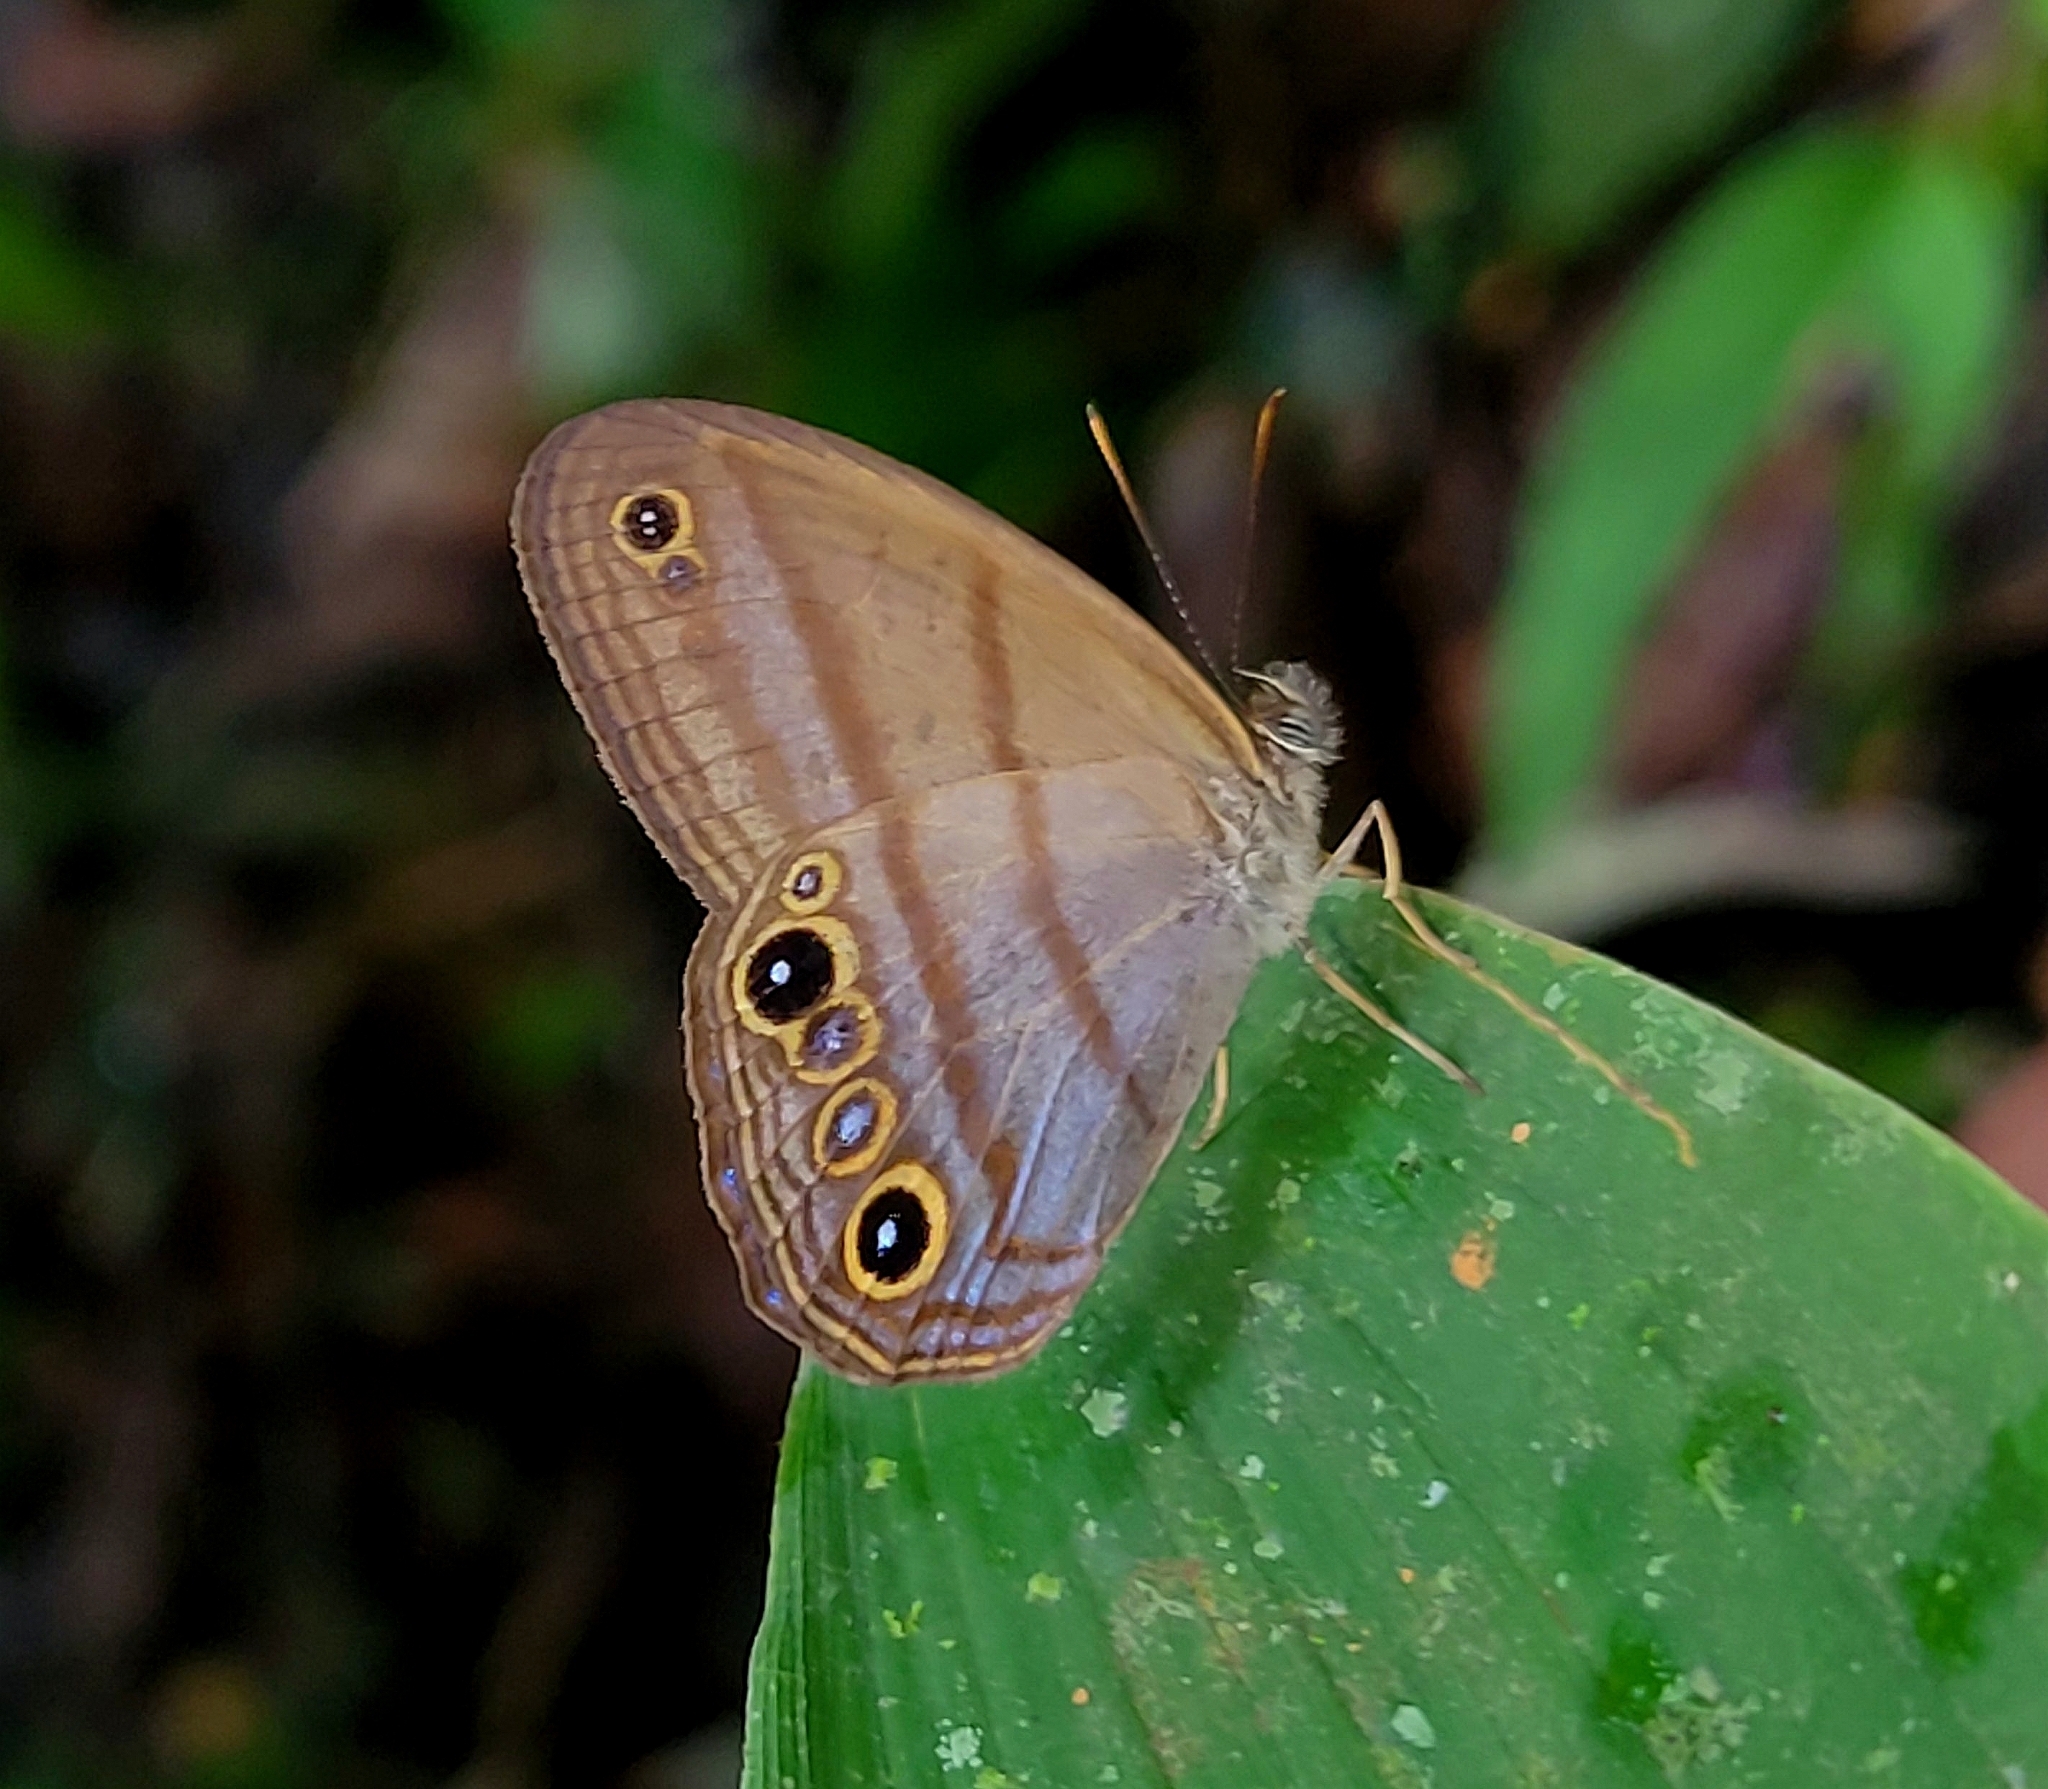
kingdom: Animalia
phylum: Arthropoda
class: Insecta
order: Lepidoptera
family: Nymphalidae
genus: Amiga
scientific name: Amiga arnaca
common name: Blue-topped satyr
